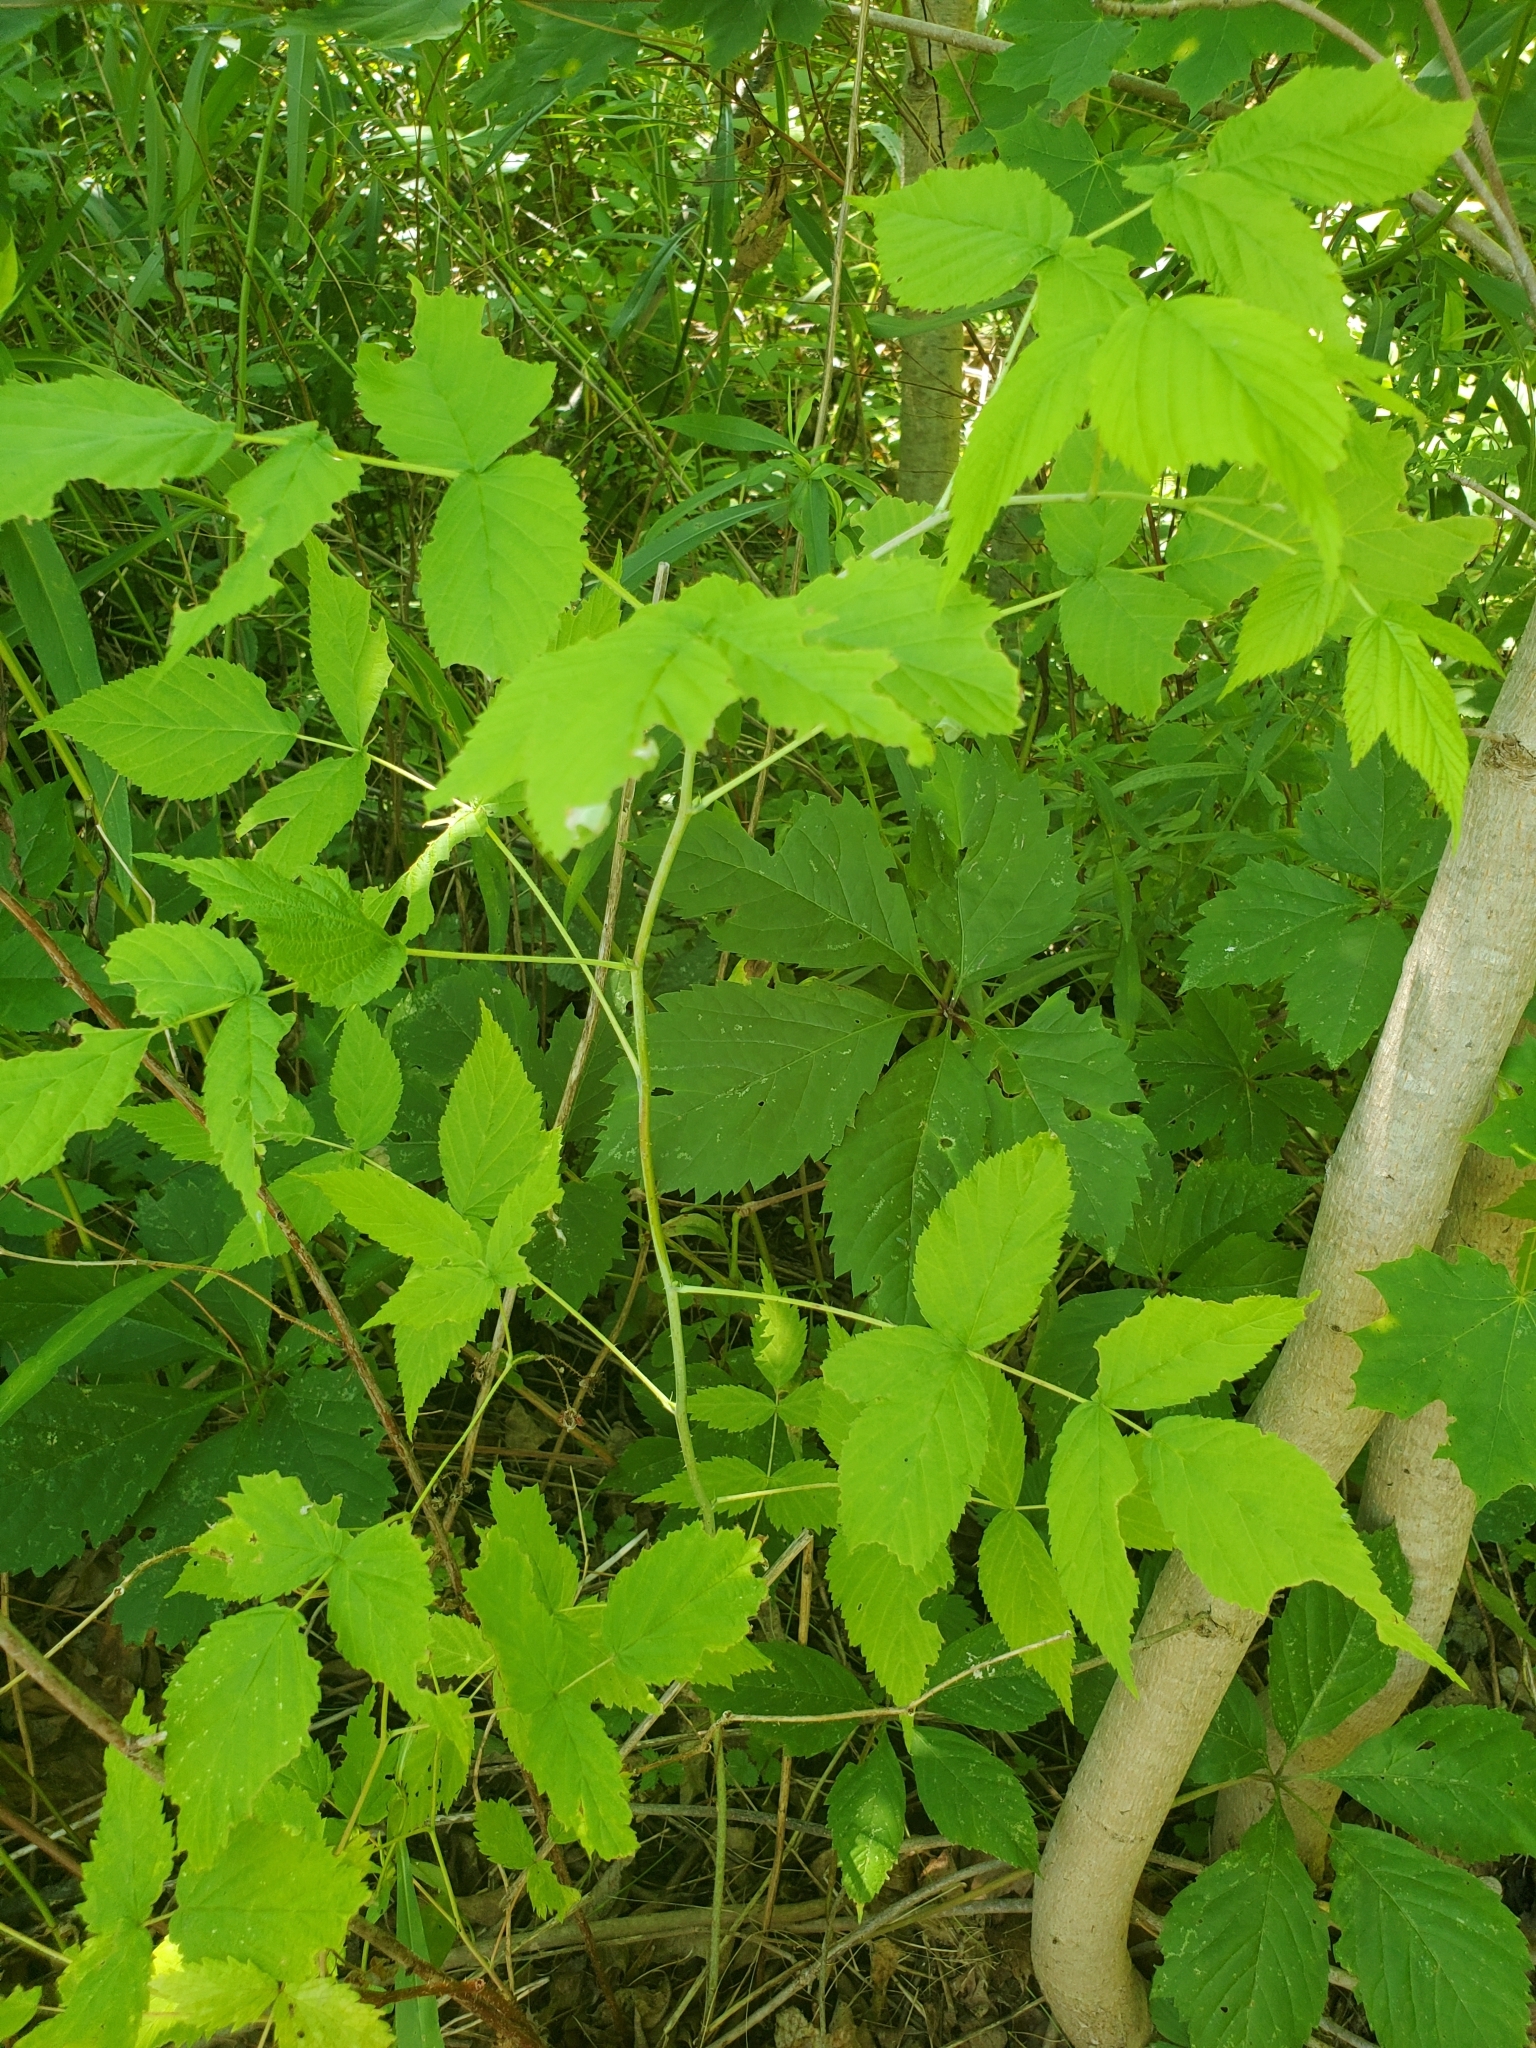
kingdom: Plantae
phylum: Tracheophyta
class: Magnoliopsida
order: Rosales
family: Rosaceae
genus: Rubus
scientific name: Rubus idaeus
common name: Raspberry
